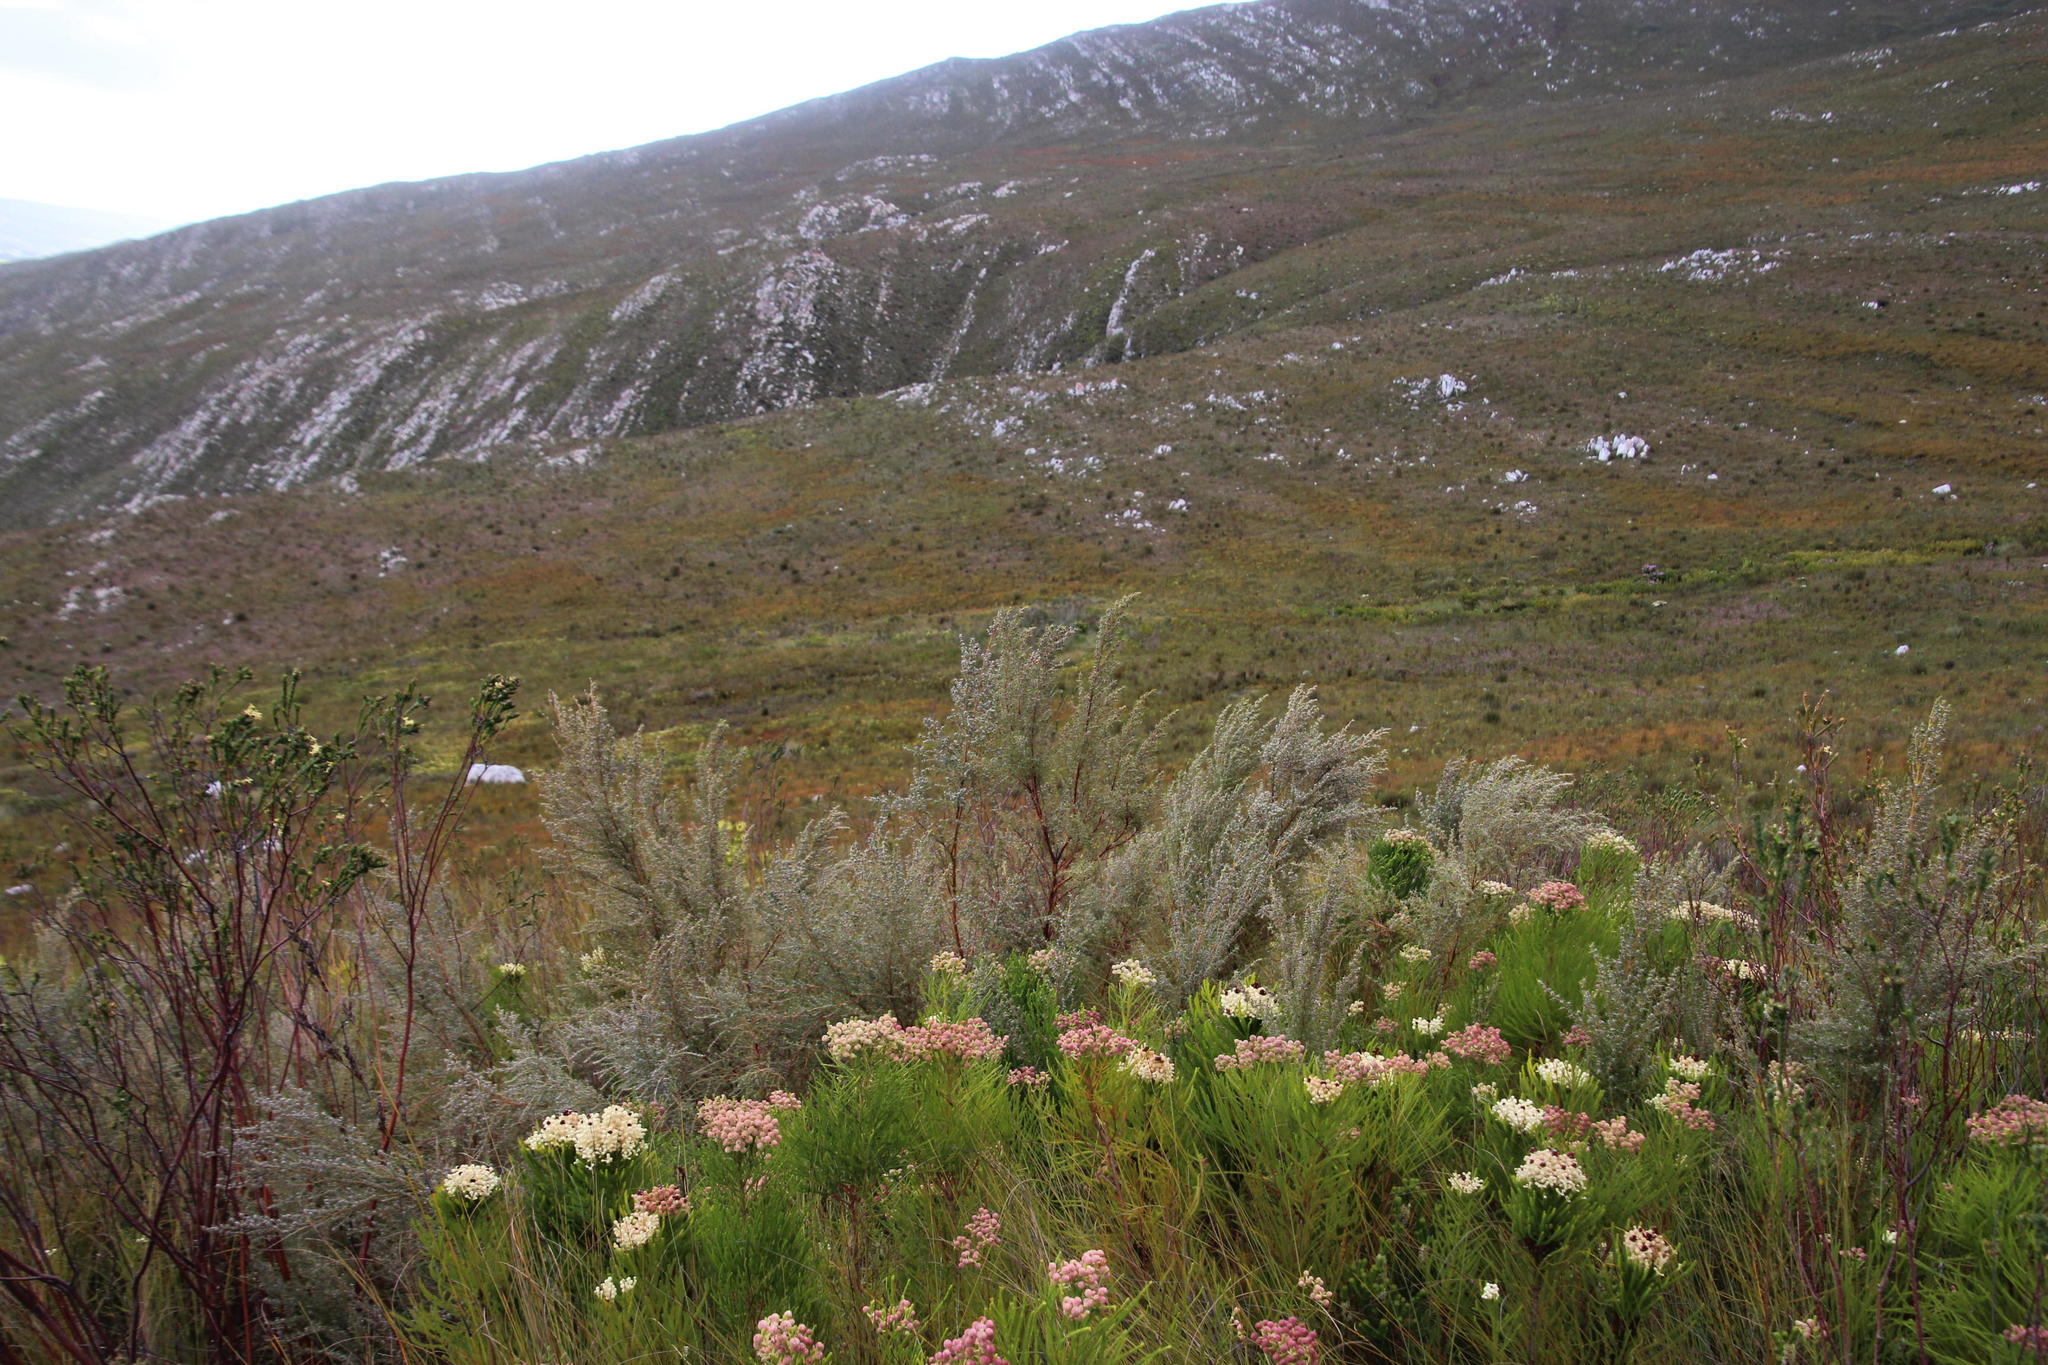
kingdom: Plantae
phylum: Tracheophyta
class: Magnoliopsida
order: Cornales
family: Grubbiaceae
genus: Grubbia
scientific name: Grubbia rosmarinifolia
